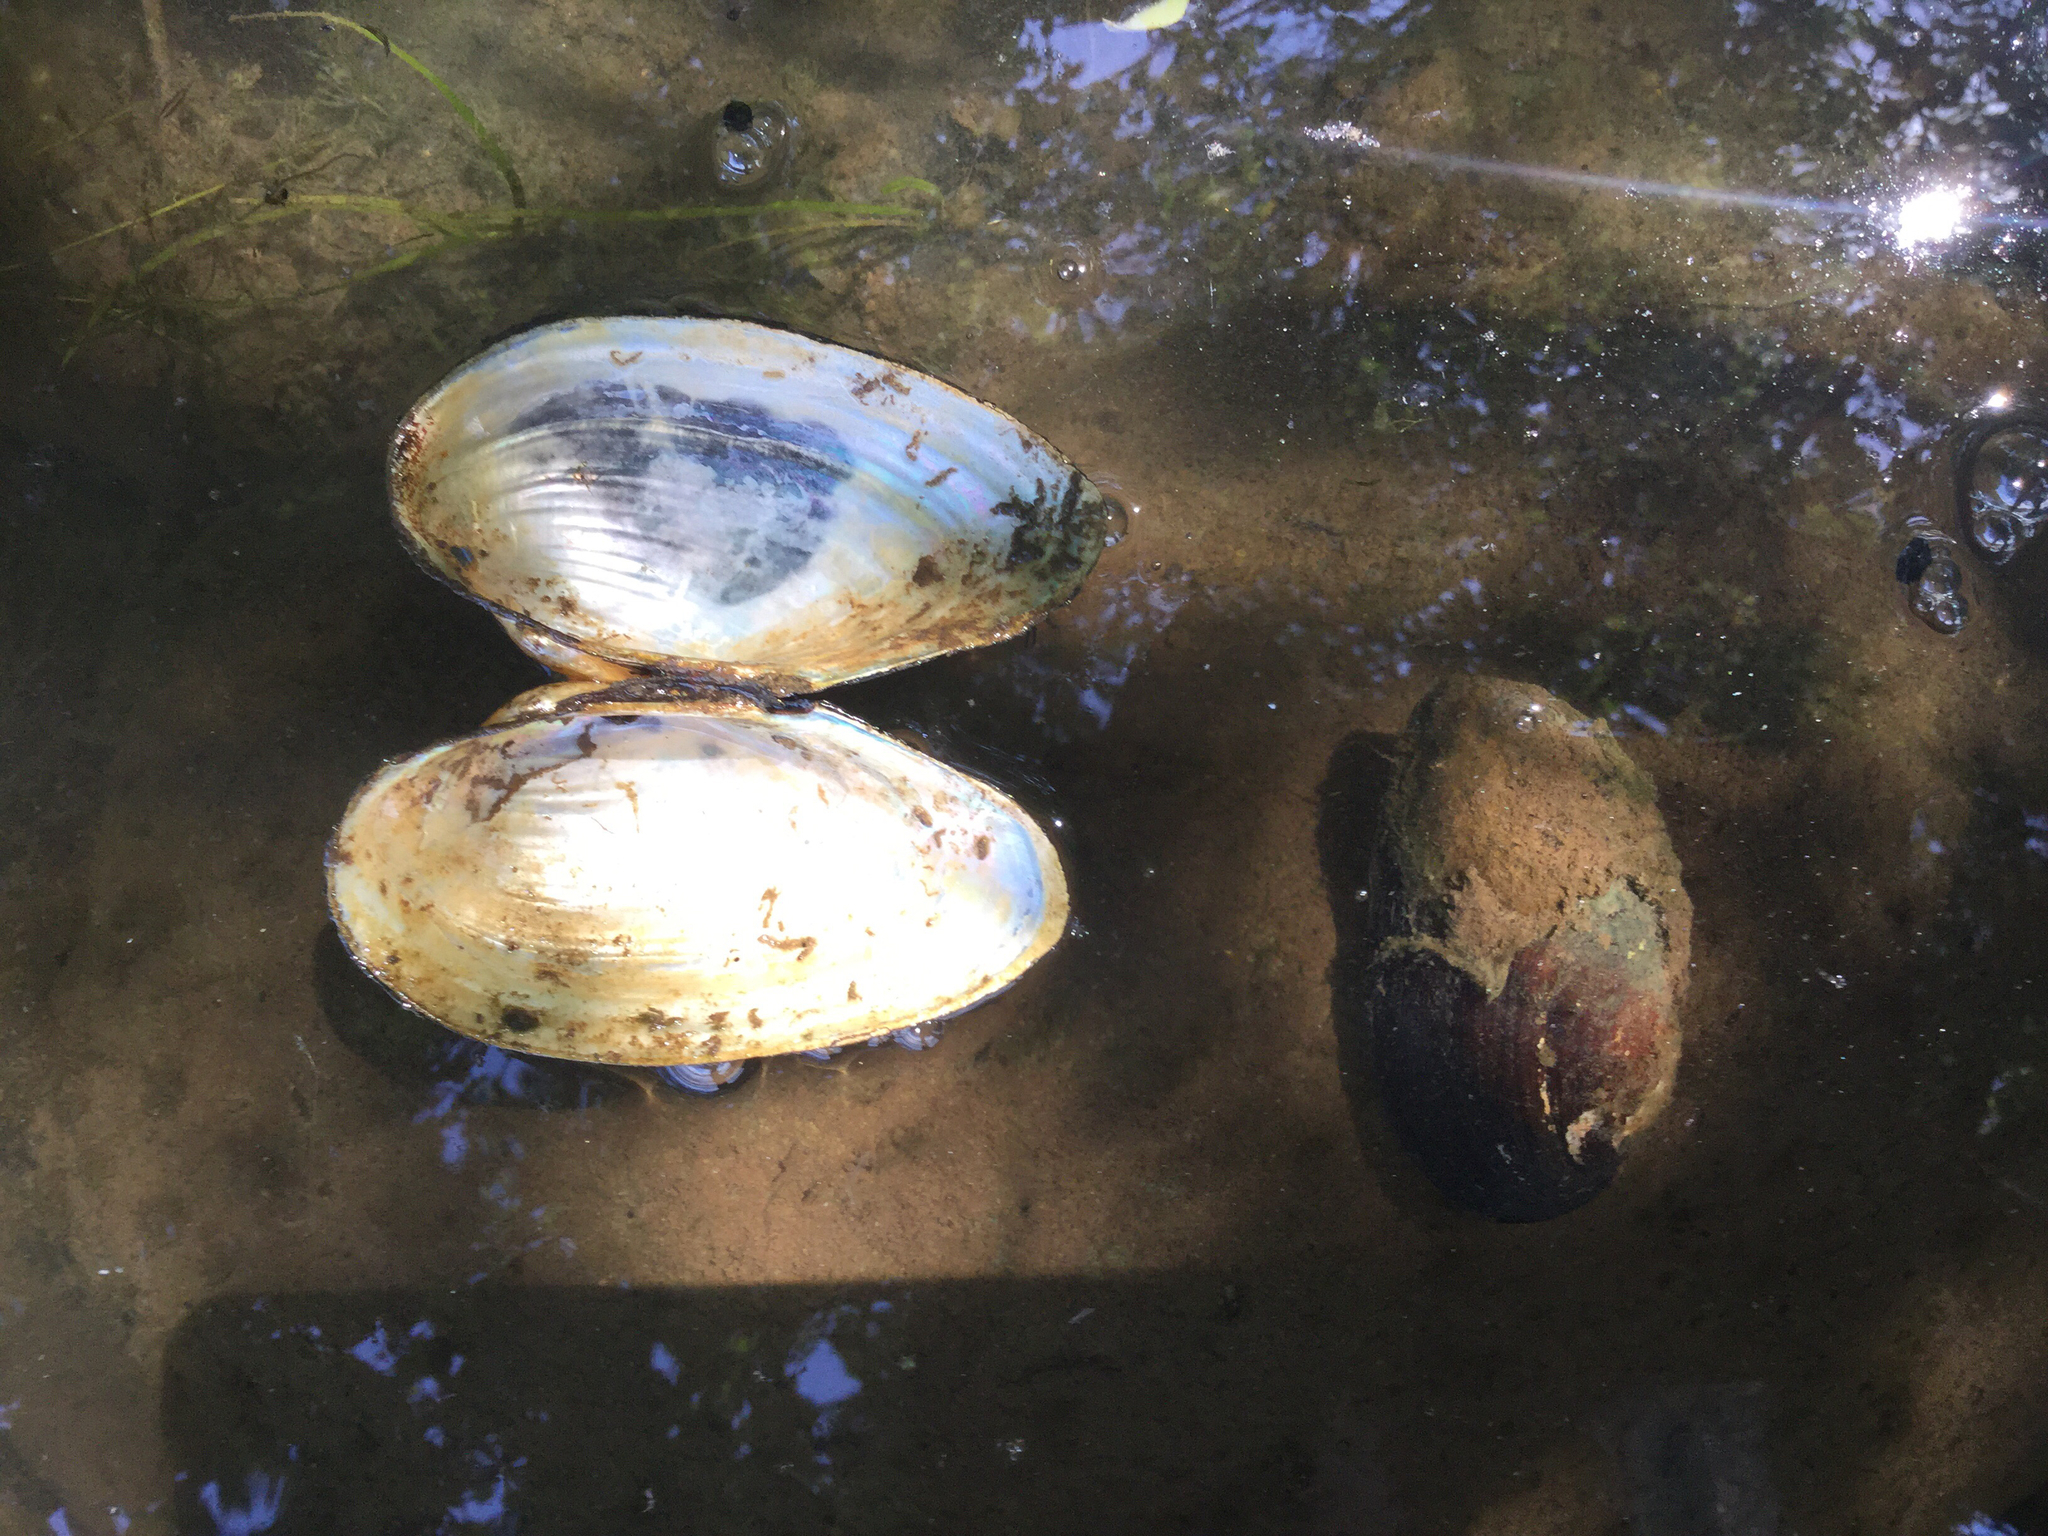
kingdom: Animalia
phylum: Mollusca
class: Bivalvia
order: Unionida
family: Unionidae
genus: Pyganodon
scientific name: Pyganodon grandis
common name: Giant floater
